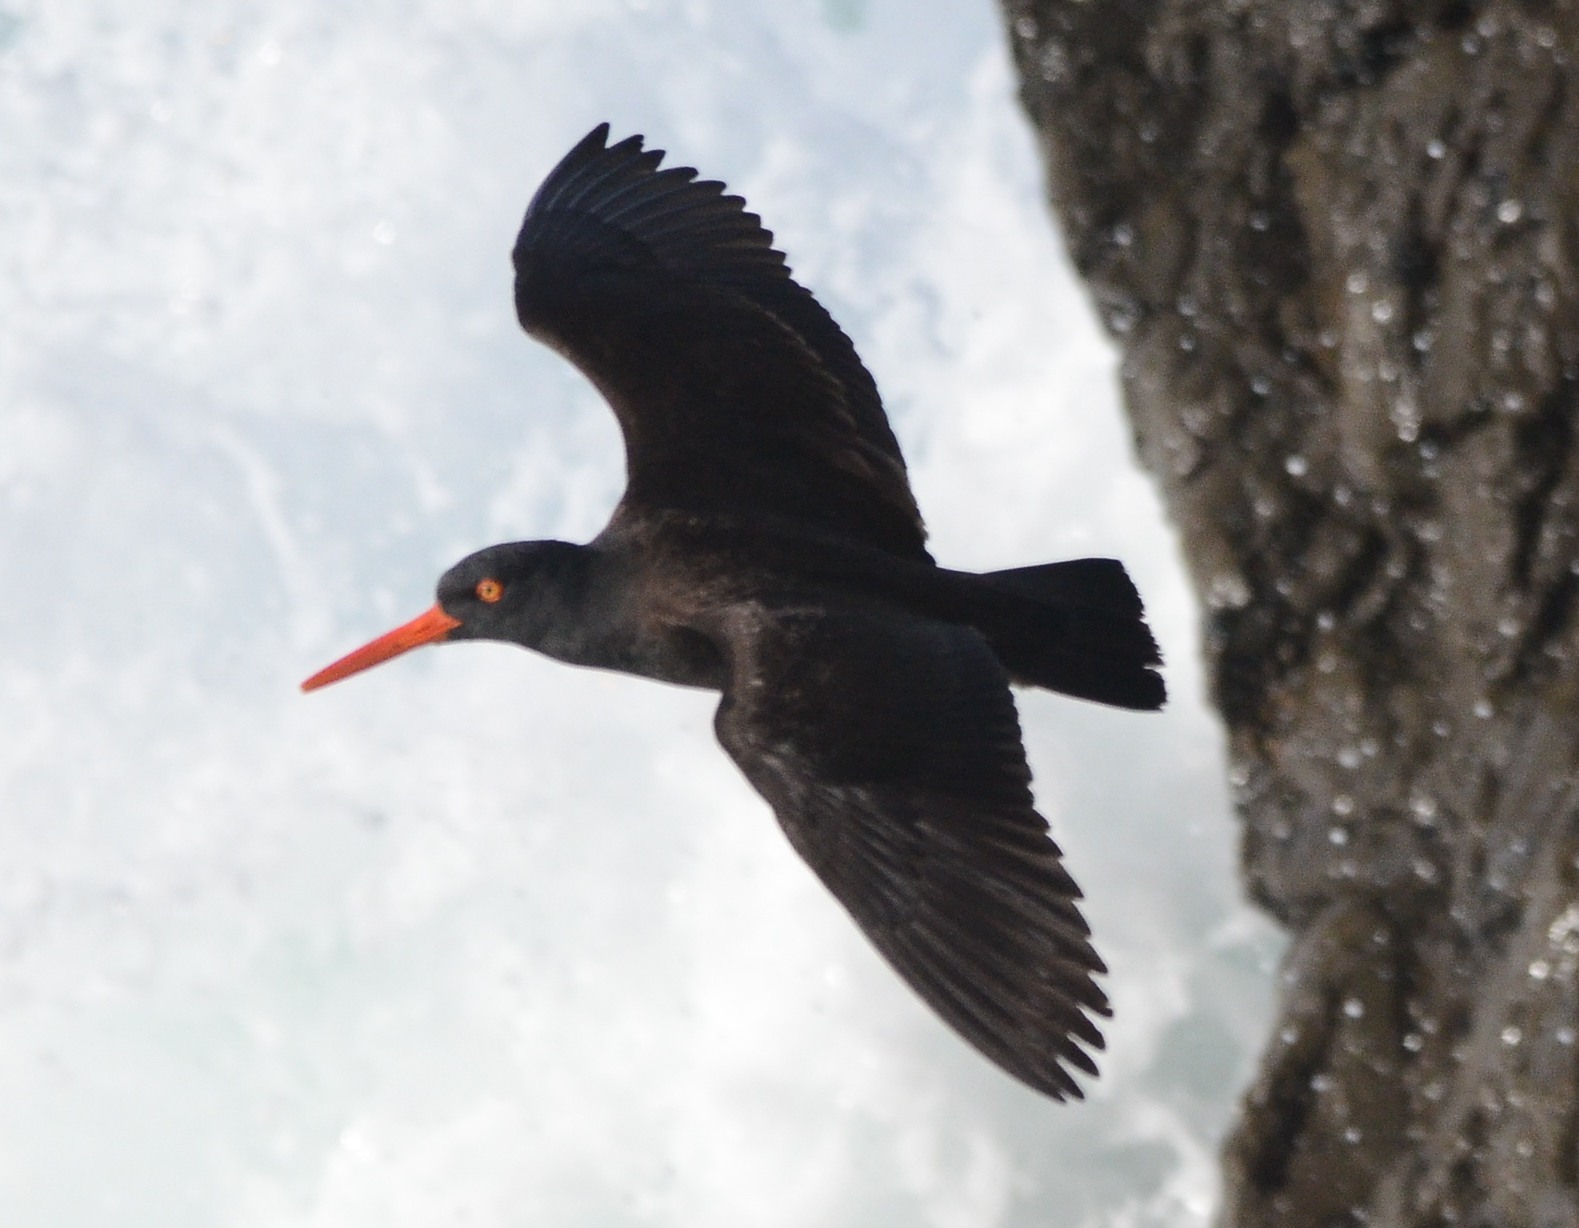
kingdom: Animalia
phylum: Chordata
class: Aves
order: Charadriiformes
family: Haematopodidae
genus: Haematopus
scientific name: Haematopus bachmani
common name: Black oystercatcher
